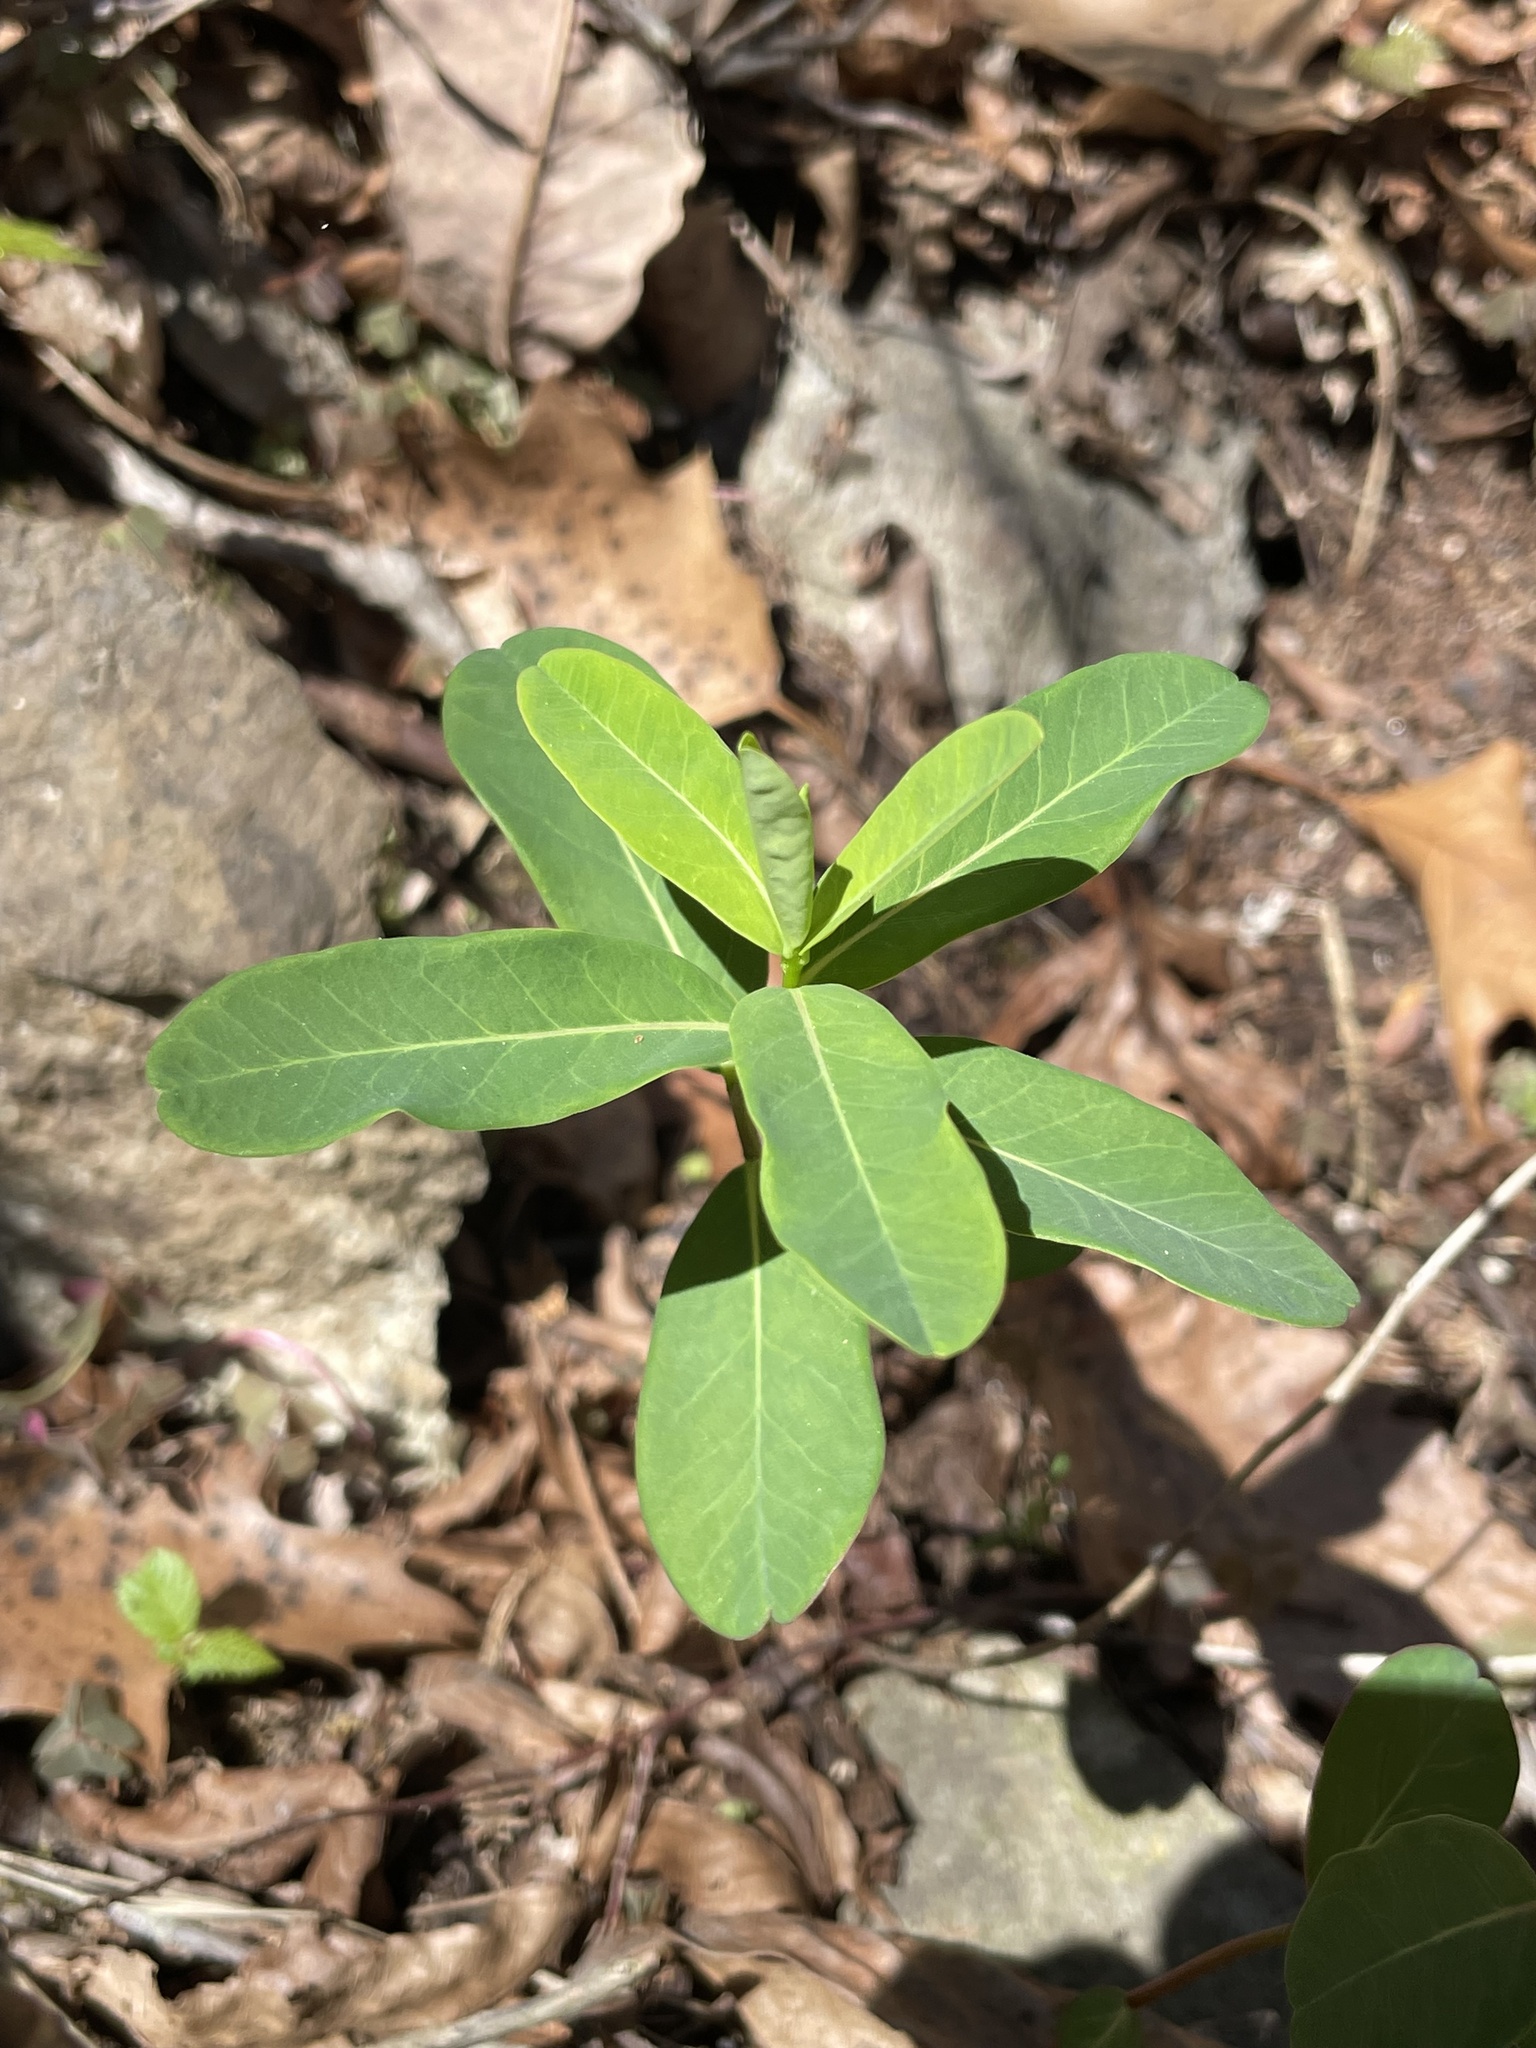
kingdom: Plantae
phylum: Tracheophyta
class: Magnoliopsida
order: Malpighiales
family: Euphorbiaceae
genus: Euphorbia
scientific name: Euphorbia pubentissima
